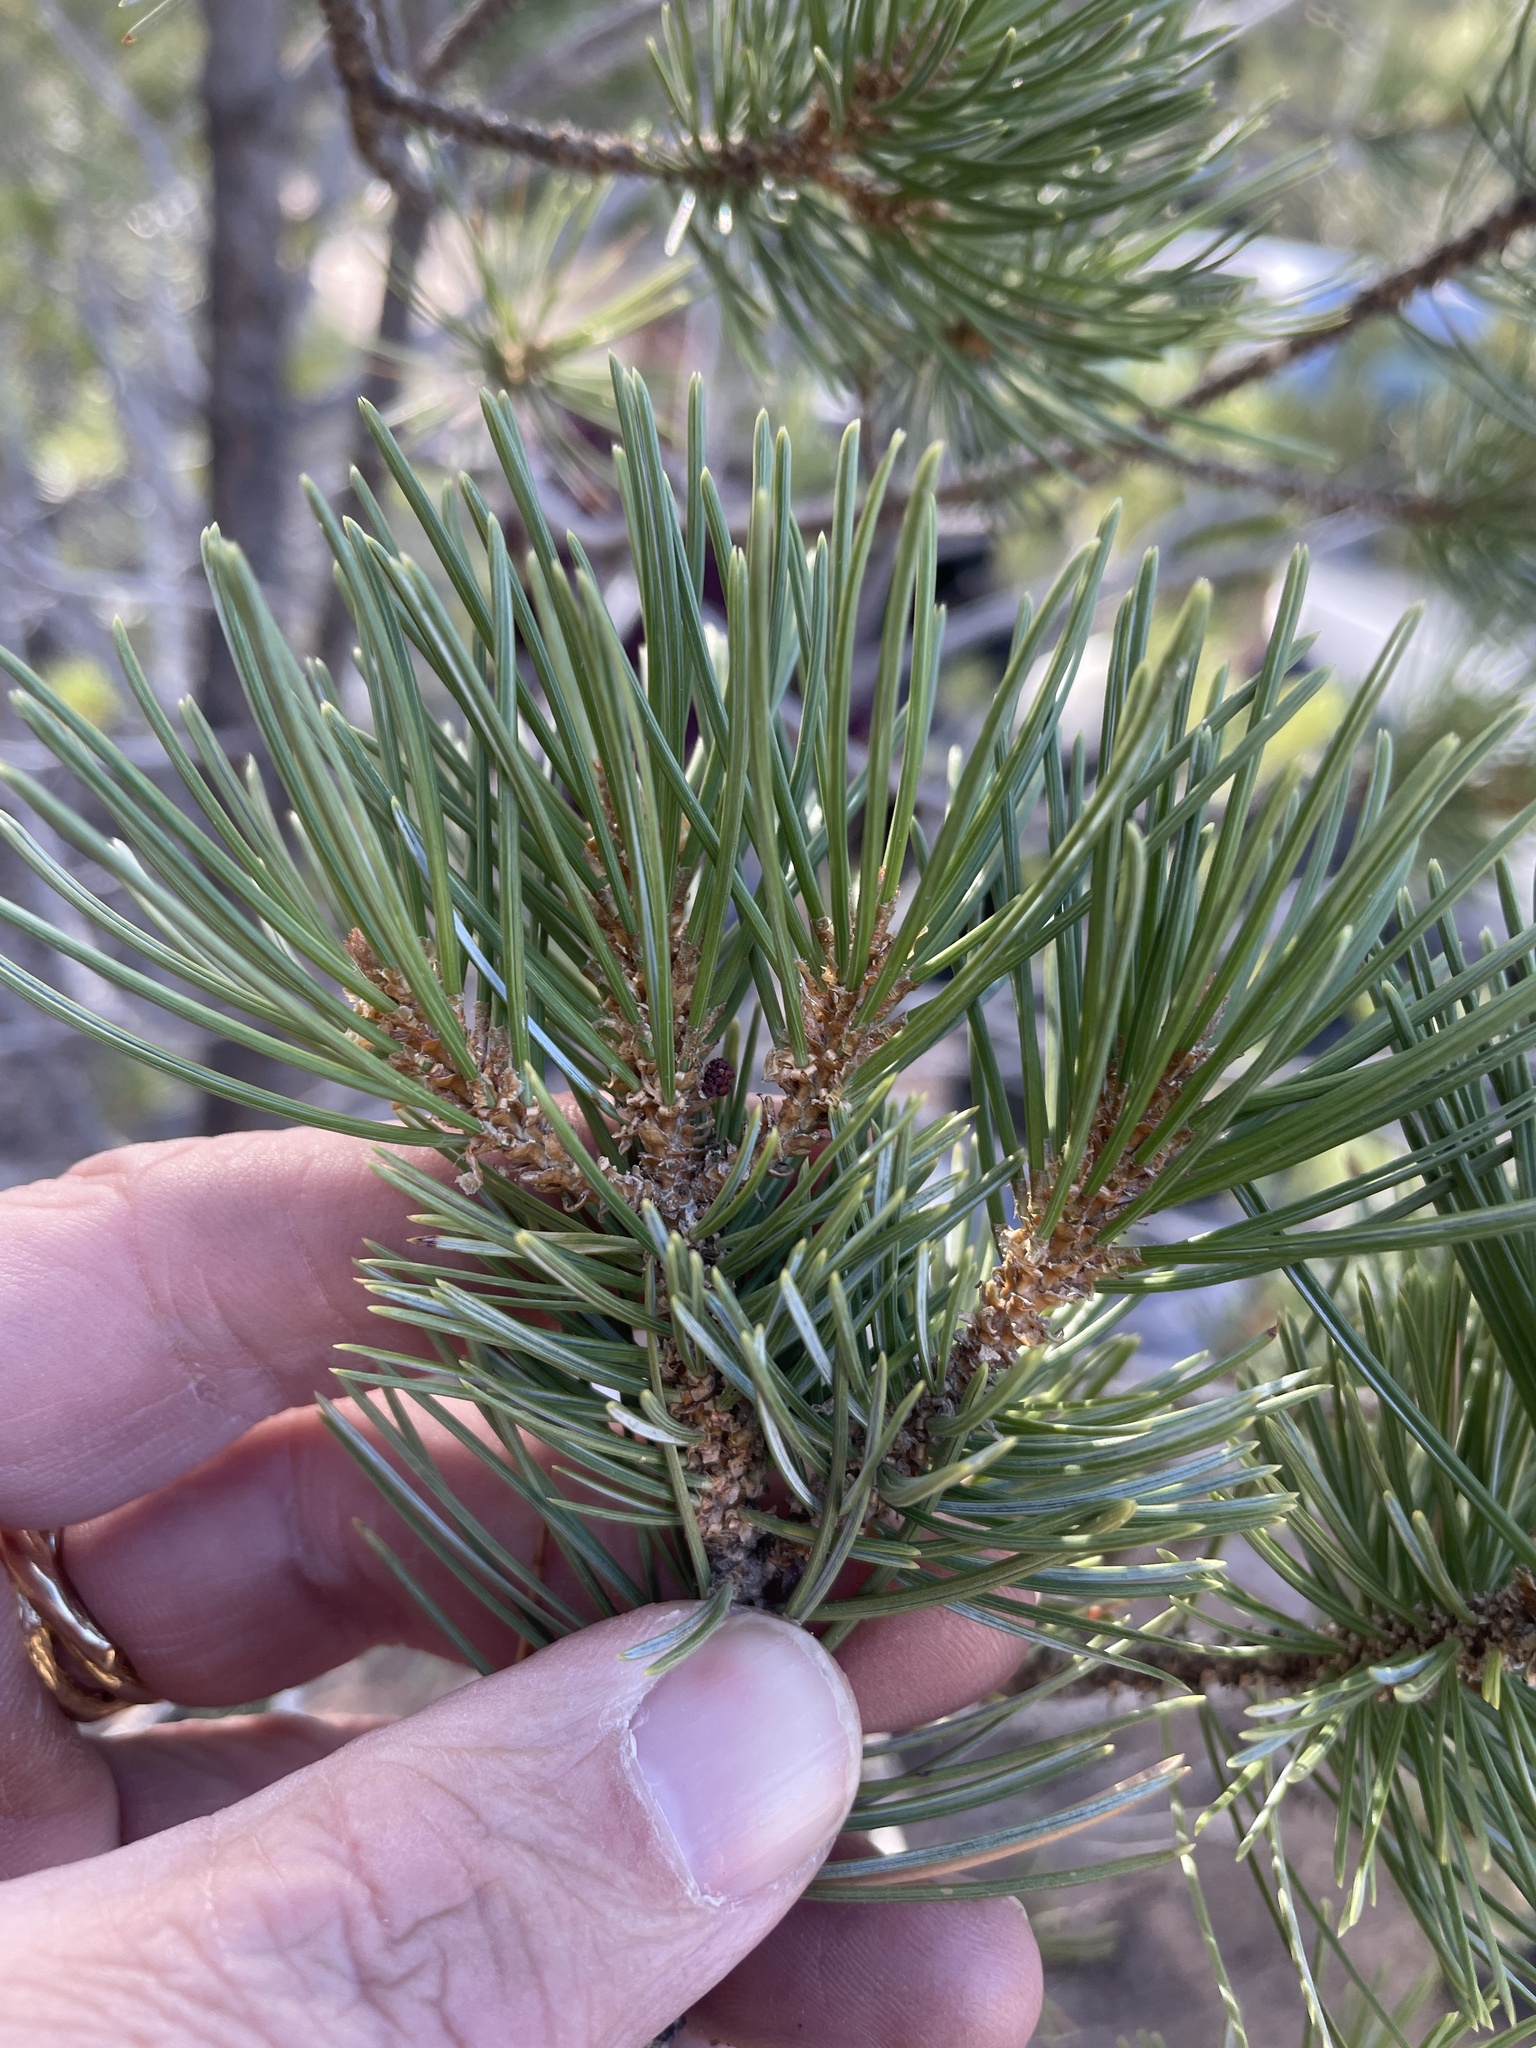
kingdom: Plantae
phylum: Tracheophyta
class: Pinopsida
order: Pinales
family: Pinaceae
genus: Pinus
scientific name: Pinus cembroides
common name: Mexican nut pine
